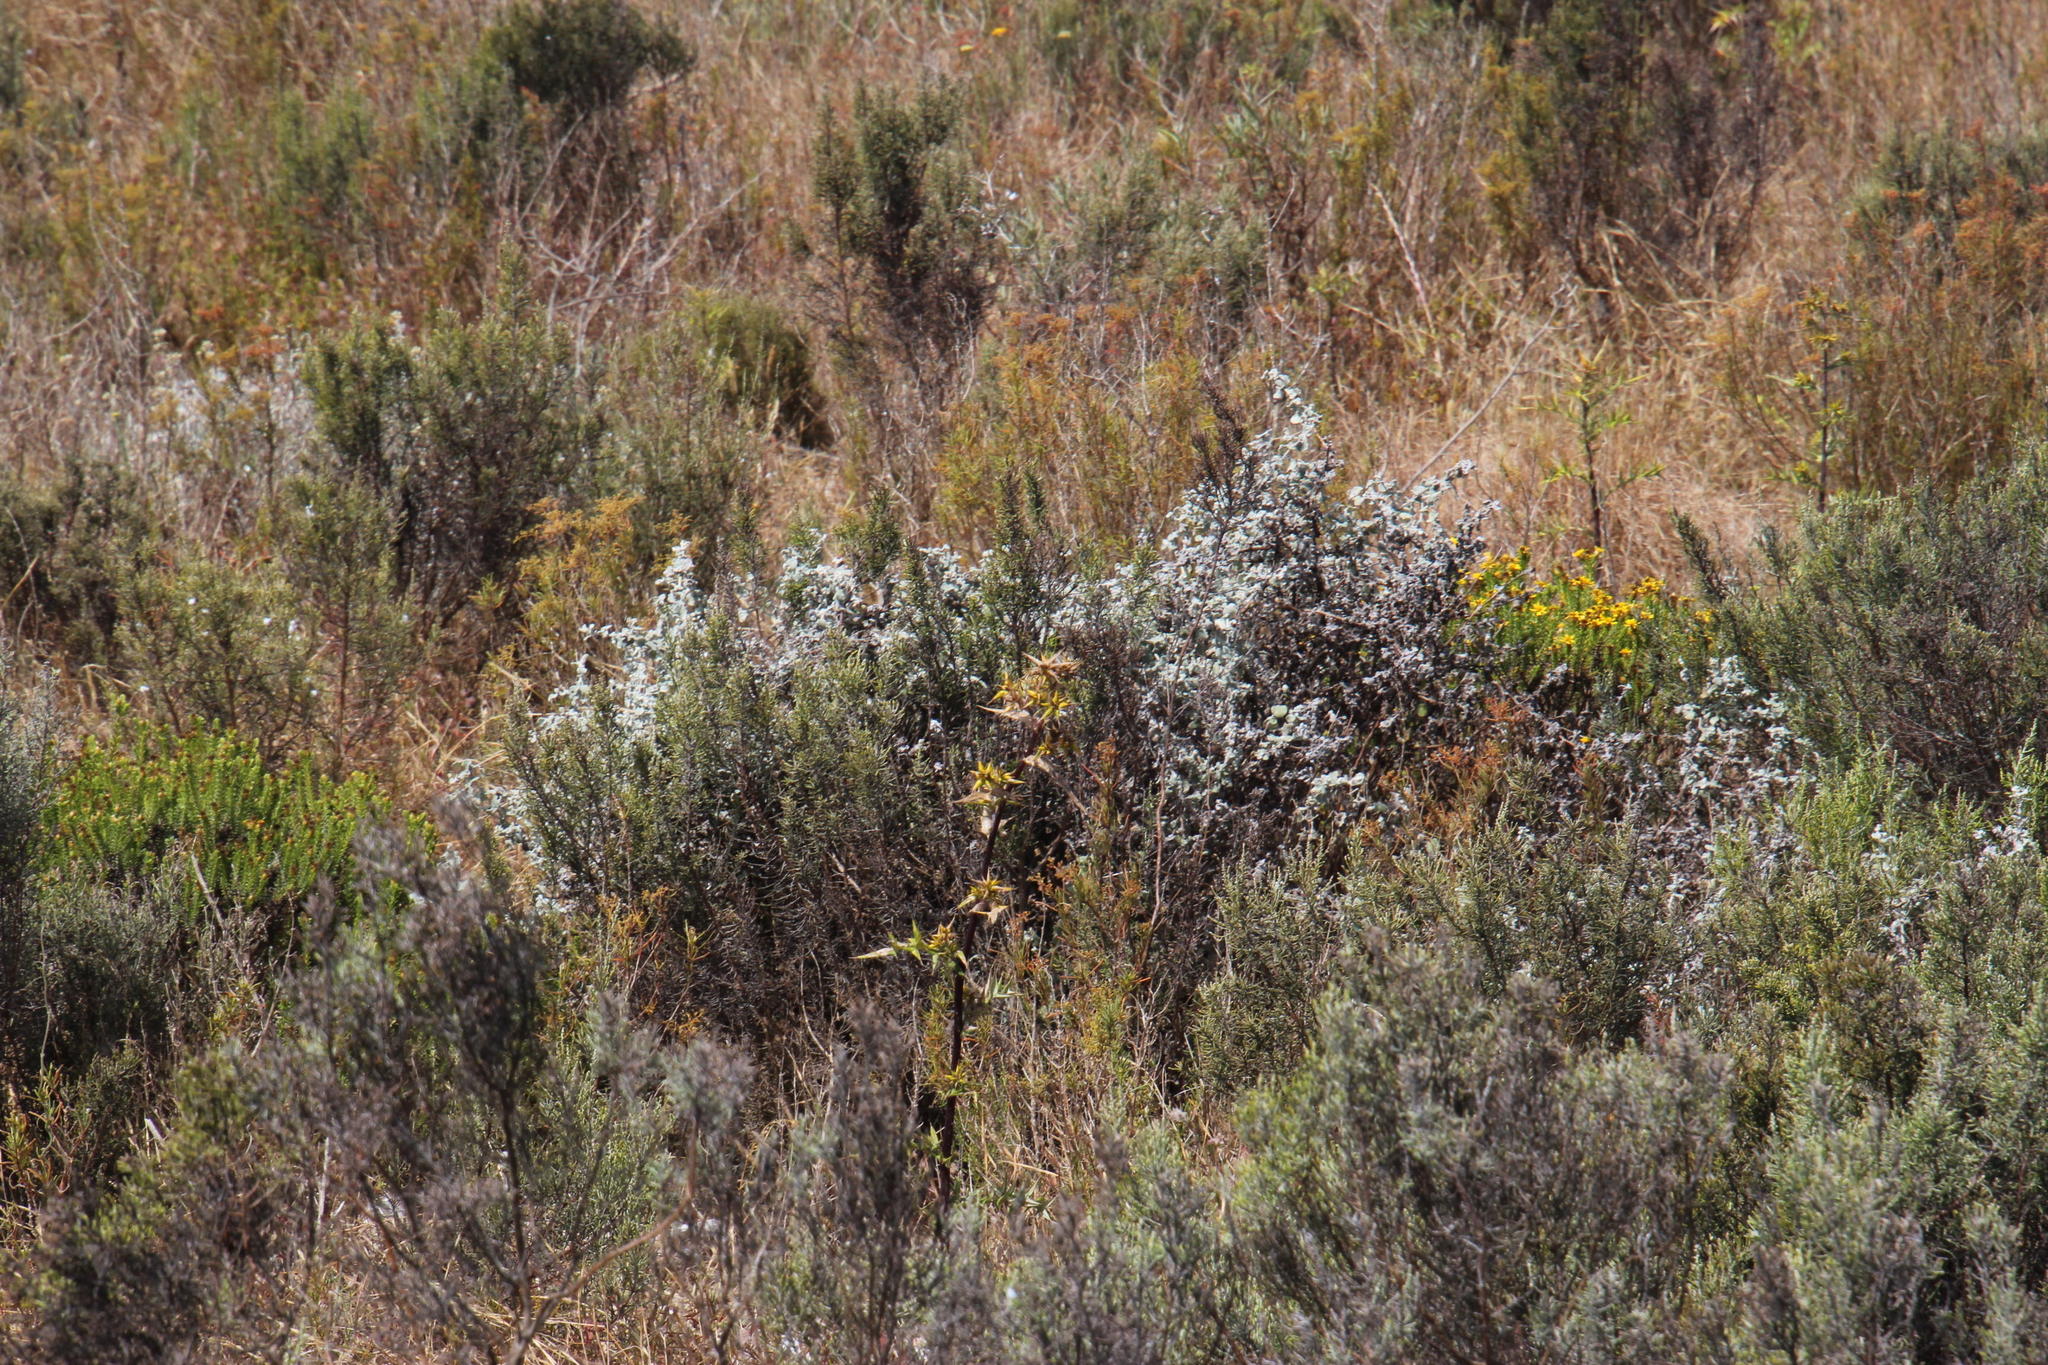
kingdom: Plantae
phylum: Tracheophyta
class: Magnoliopsida
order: Asterales
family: Asteraceae
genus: Helichrysum
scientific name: Helichrysum patulum
